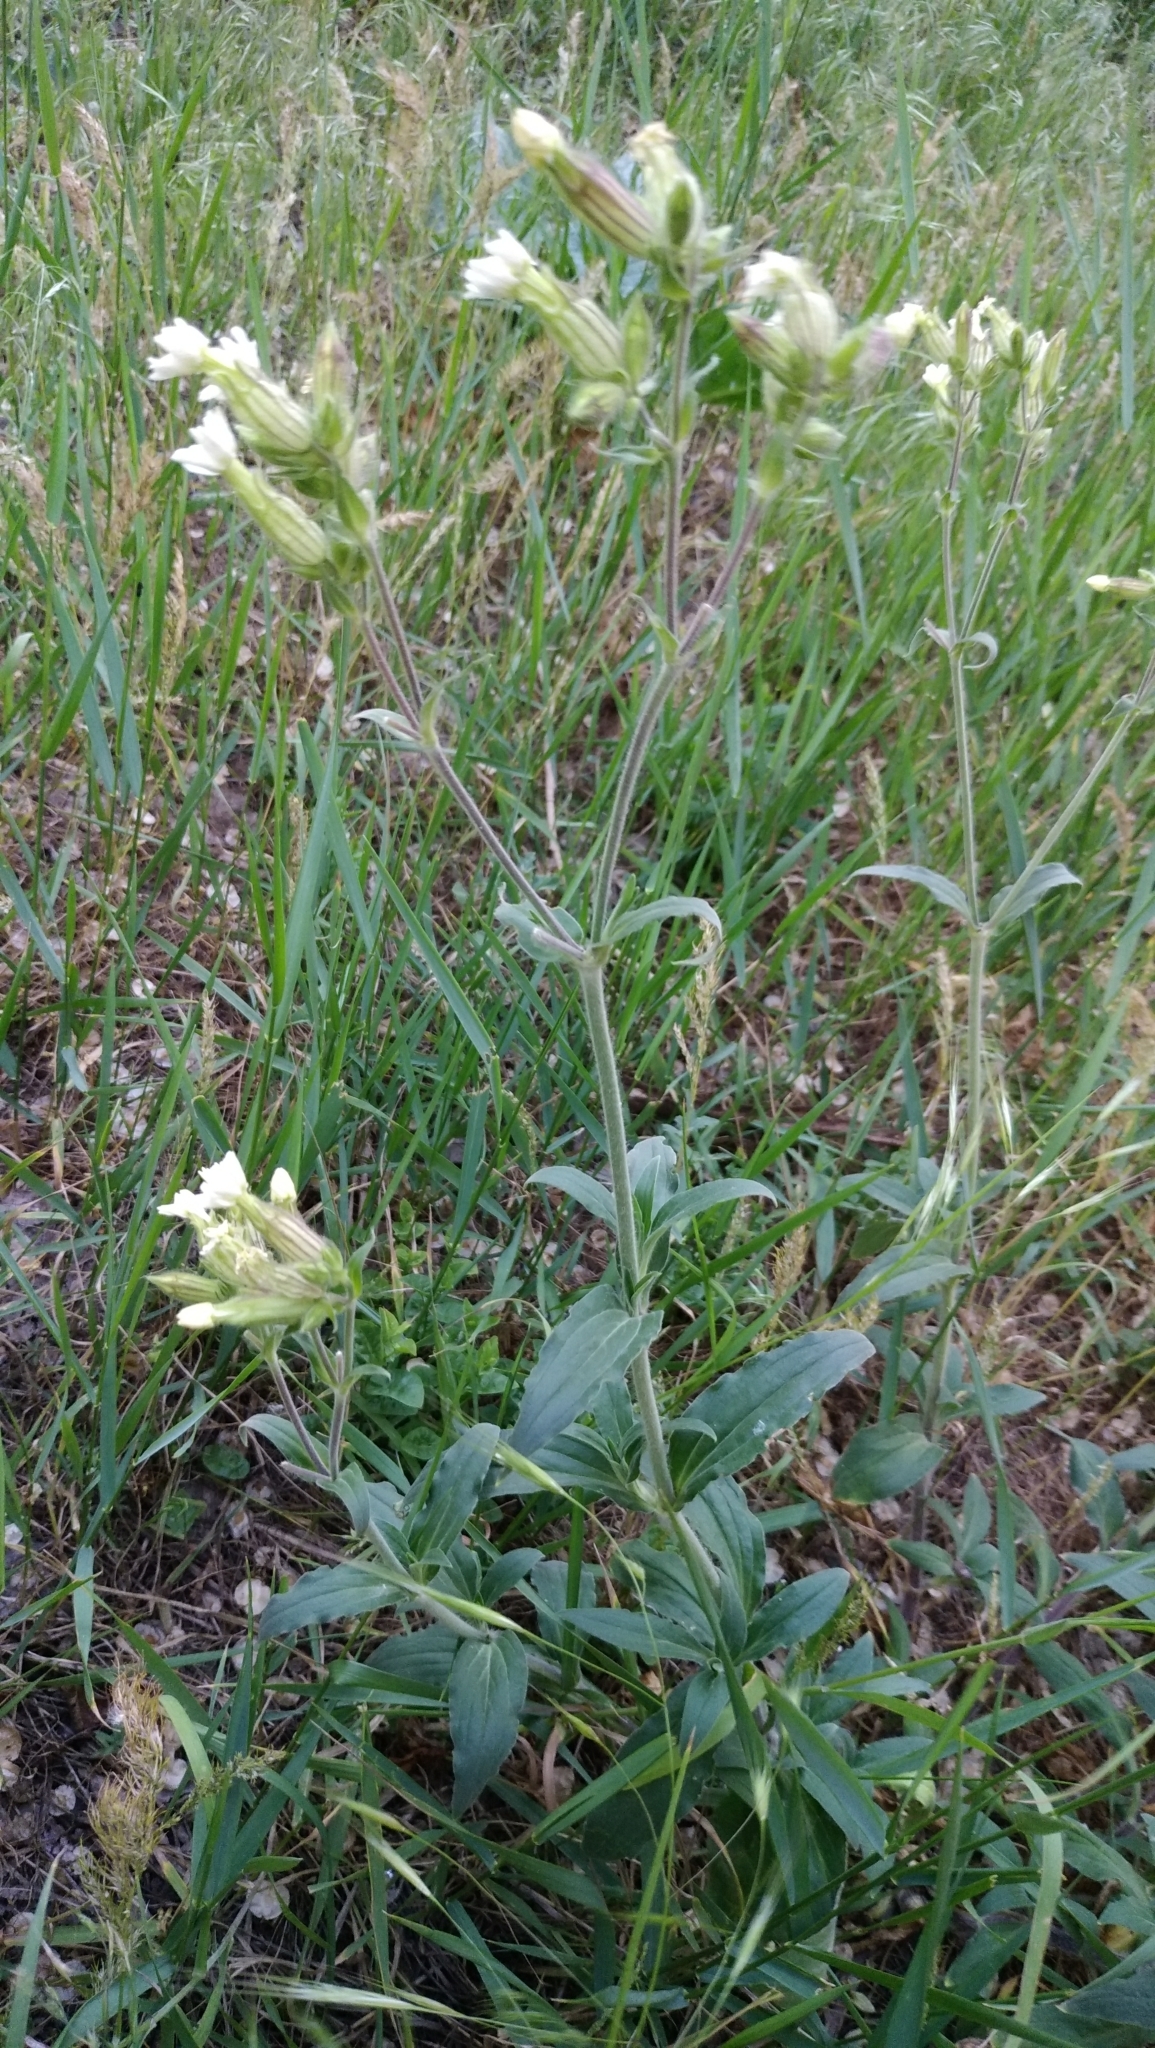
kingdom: Plantae
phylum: Tracheophyta
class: Magnoliopsida
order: Caryophyllales
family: Caryophyllaceae
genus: Silene
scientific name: Silene latifolia
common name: White campion
